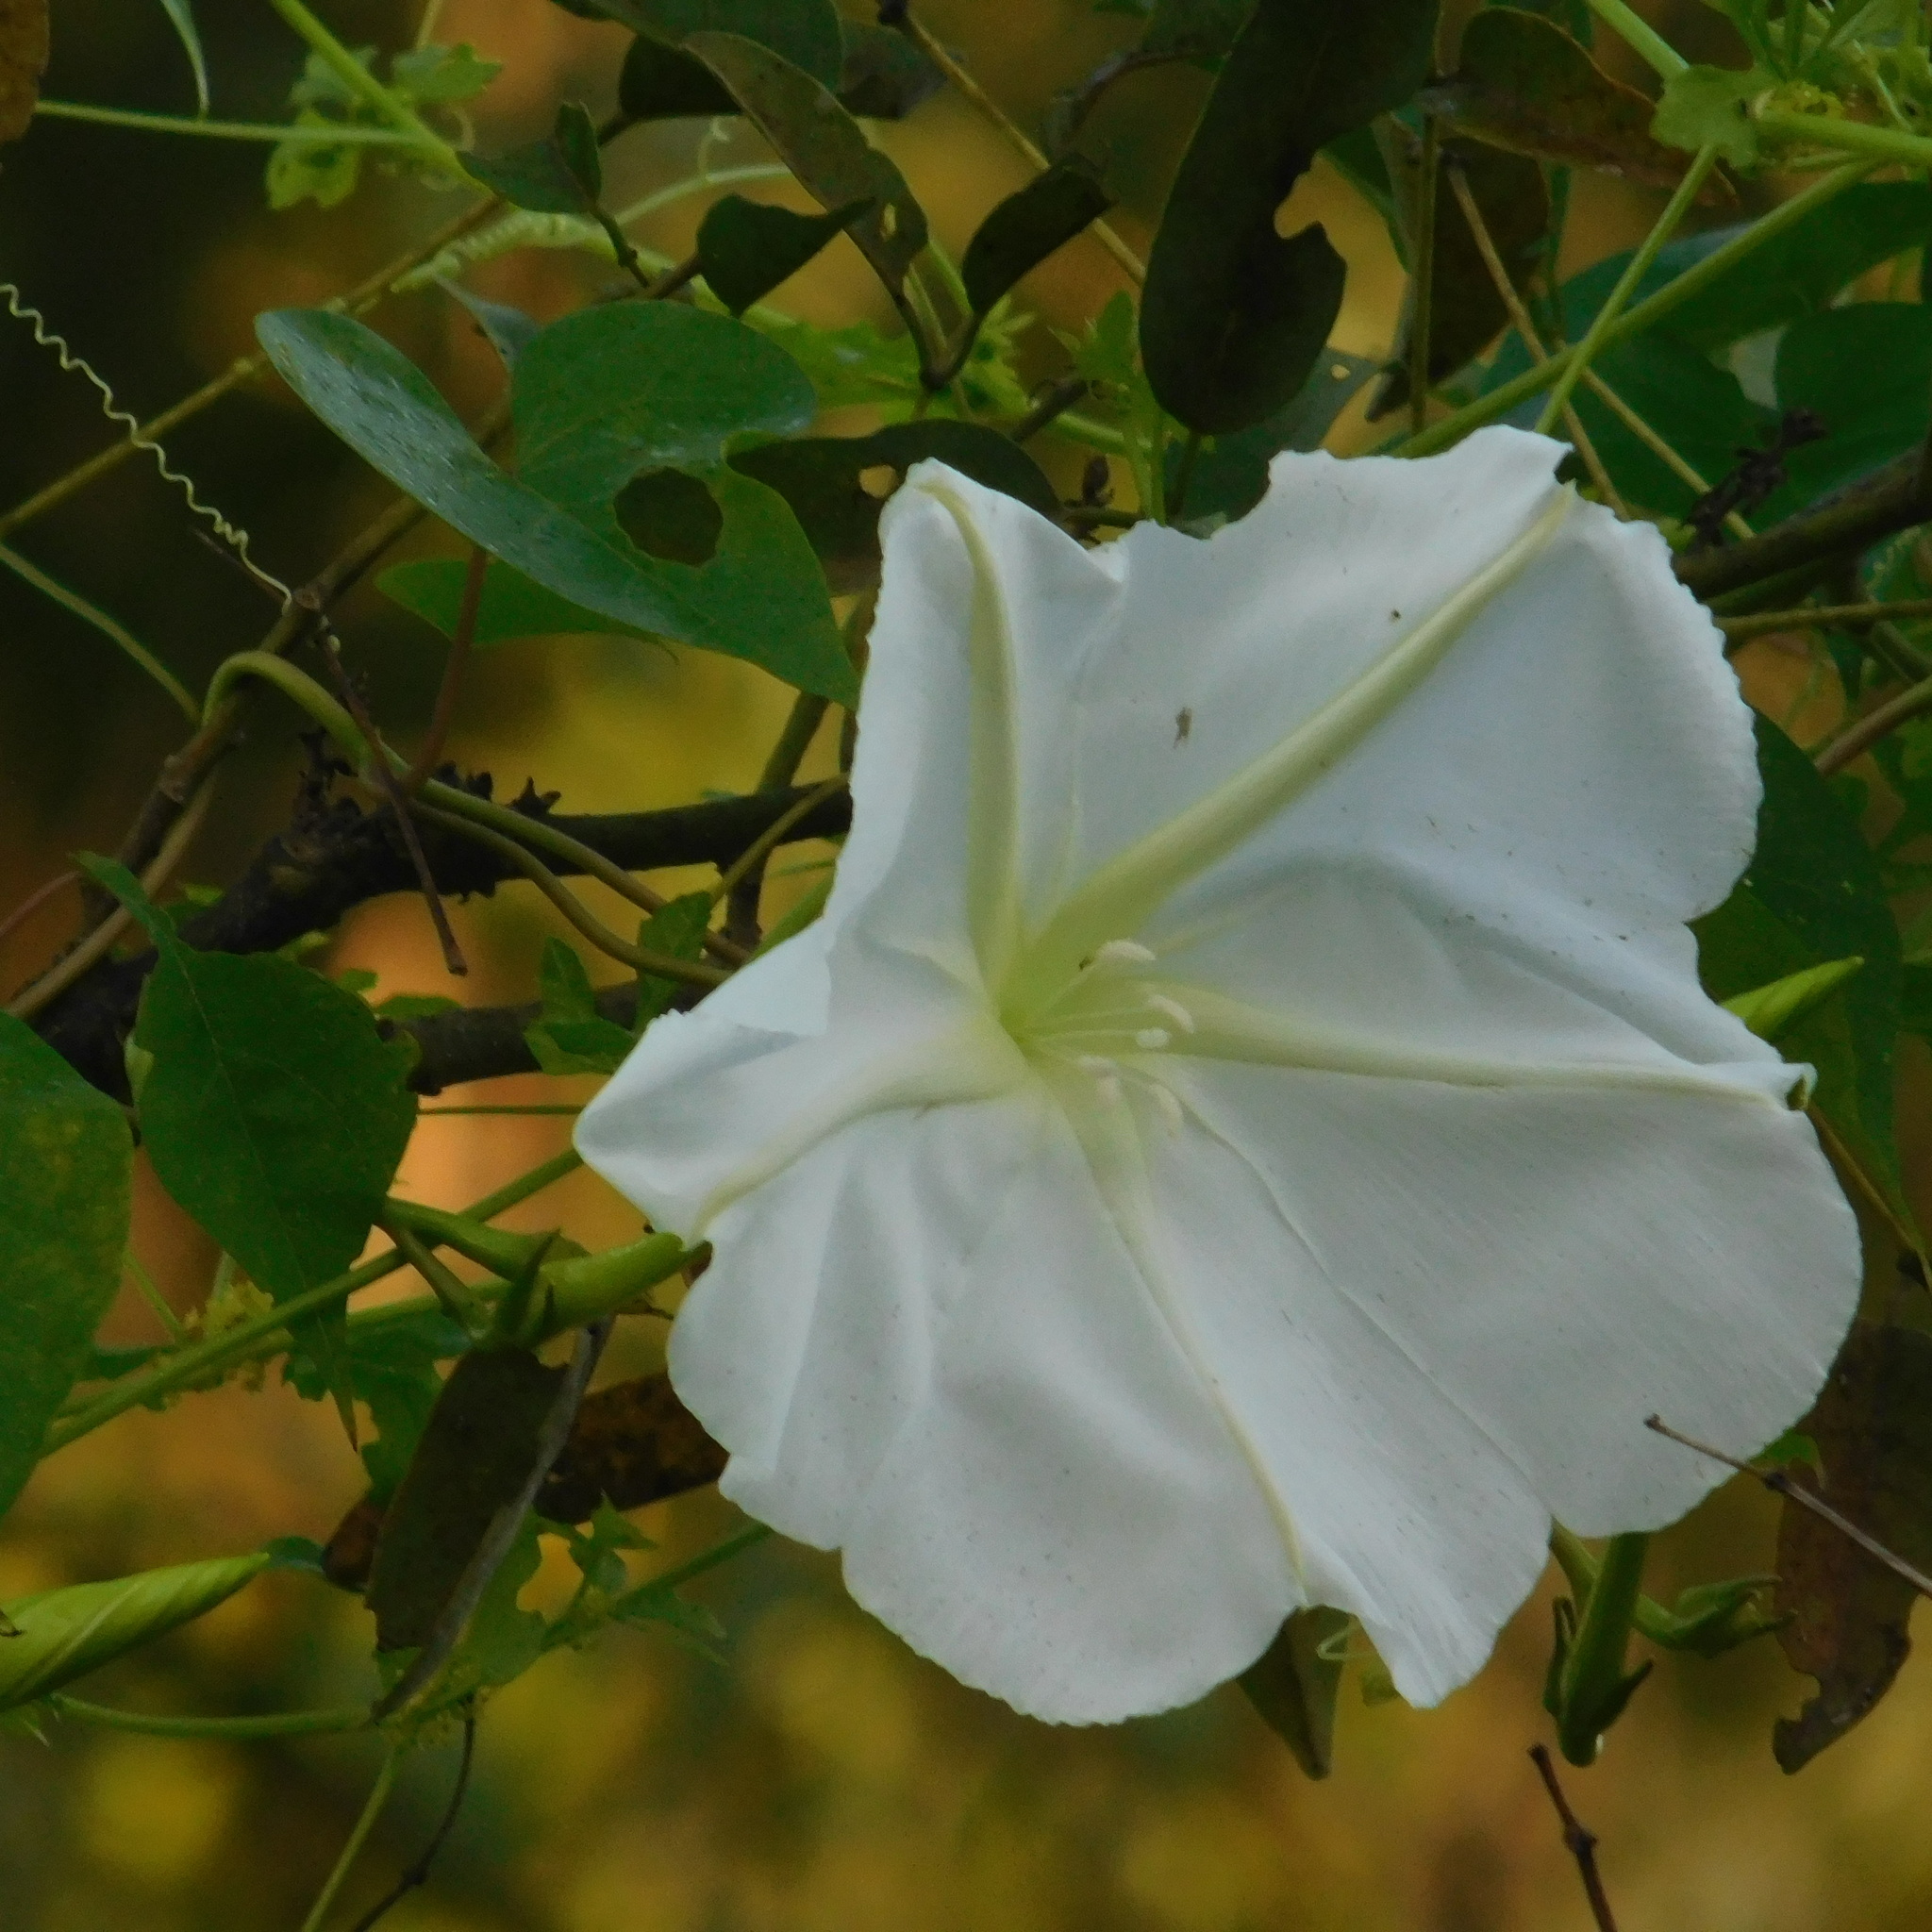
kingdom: Plantae
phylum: Tracheophyta
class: Magnoliopsida
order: Solanales
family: Convolvulaceae
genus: Ipomoea
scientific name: Ipomoea alba
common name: Moonflower
